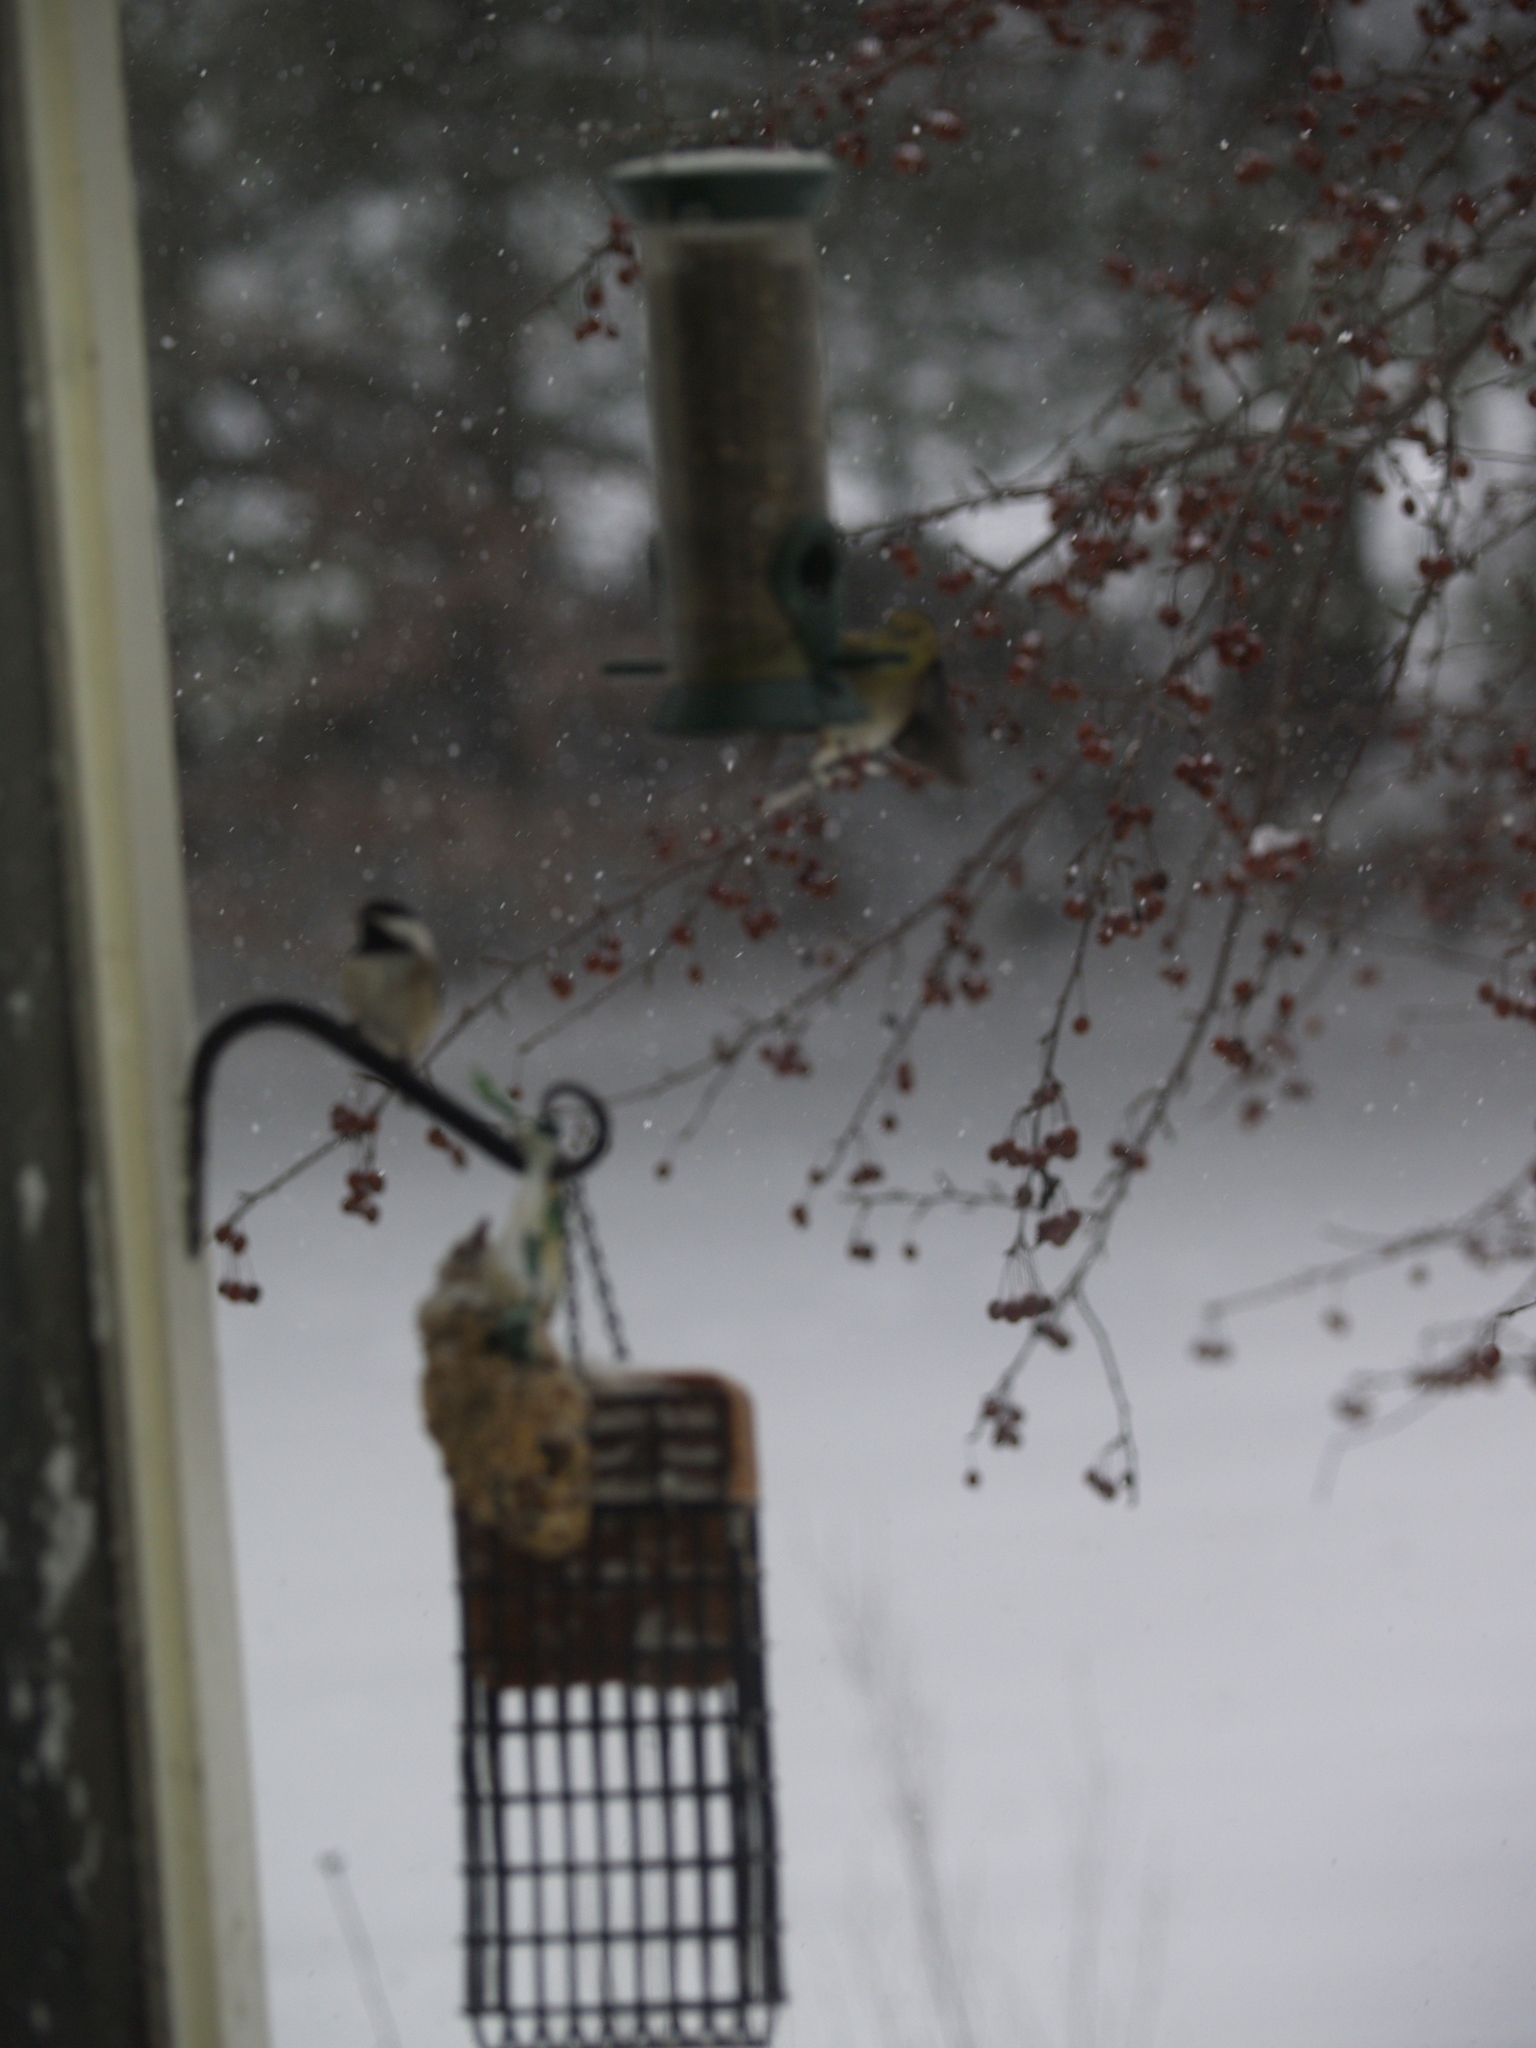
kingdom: Animalia
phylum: Chordata
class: Aves
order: Passeriformes
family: Paridae
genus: Poecile
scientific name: Poecile atricapillus
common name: Black-capped chickadee
